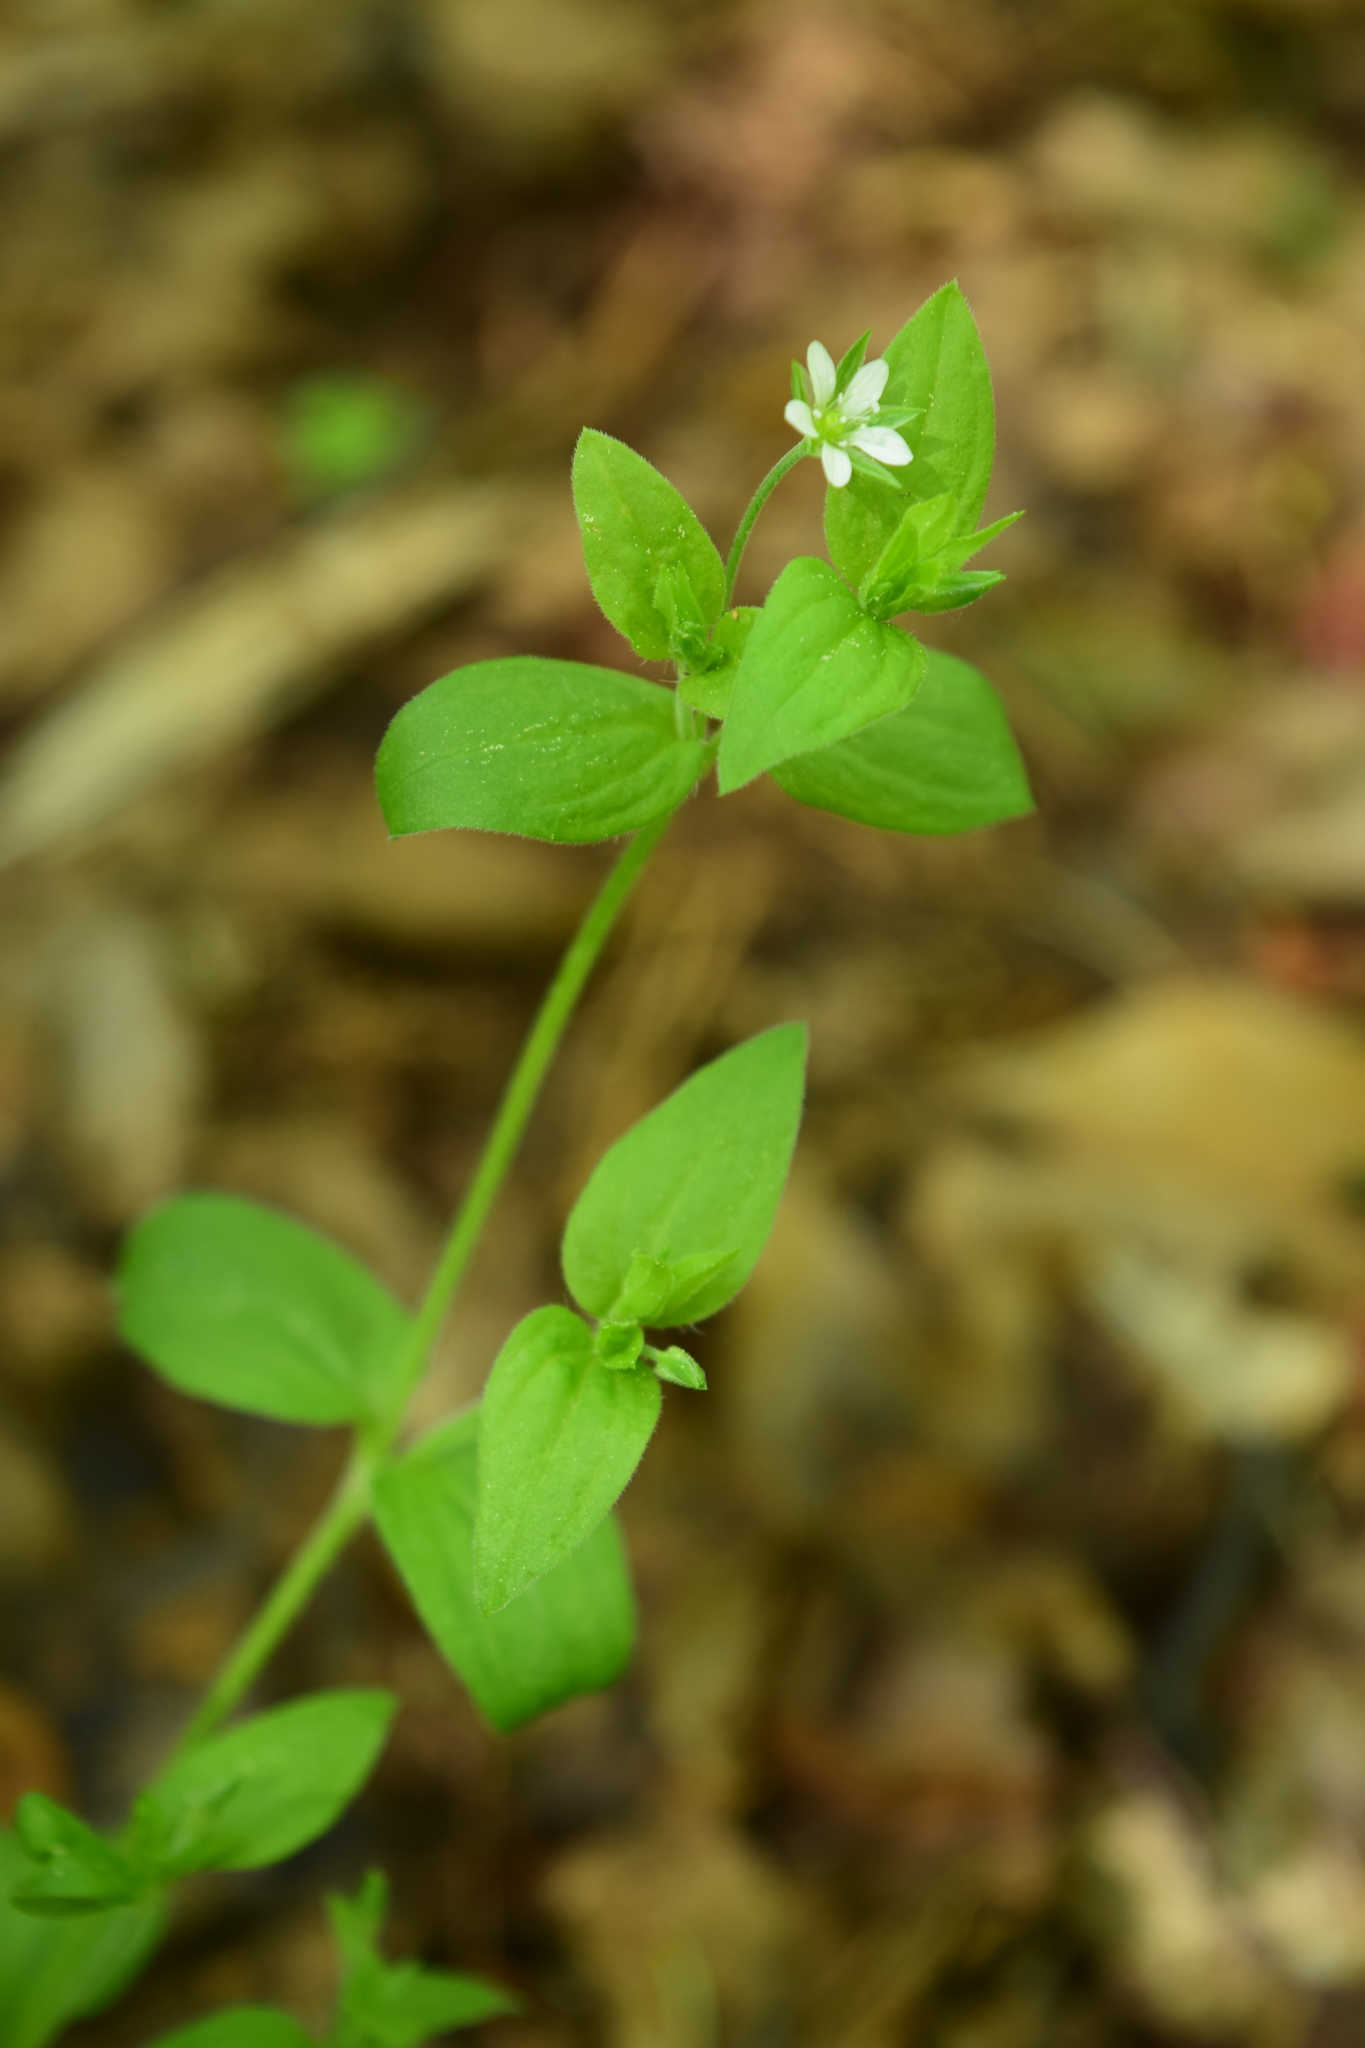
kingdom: Plantae
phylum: Tracheophyta
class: Magnoliopsida
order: Caryophyllales
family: Caryophyllaceae
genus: Moehringia
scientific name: Moehringia trinervia
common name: Three-nerved sandwort
